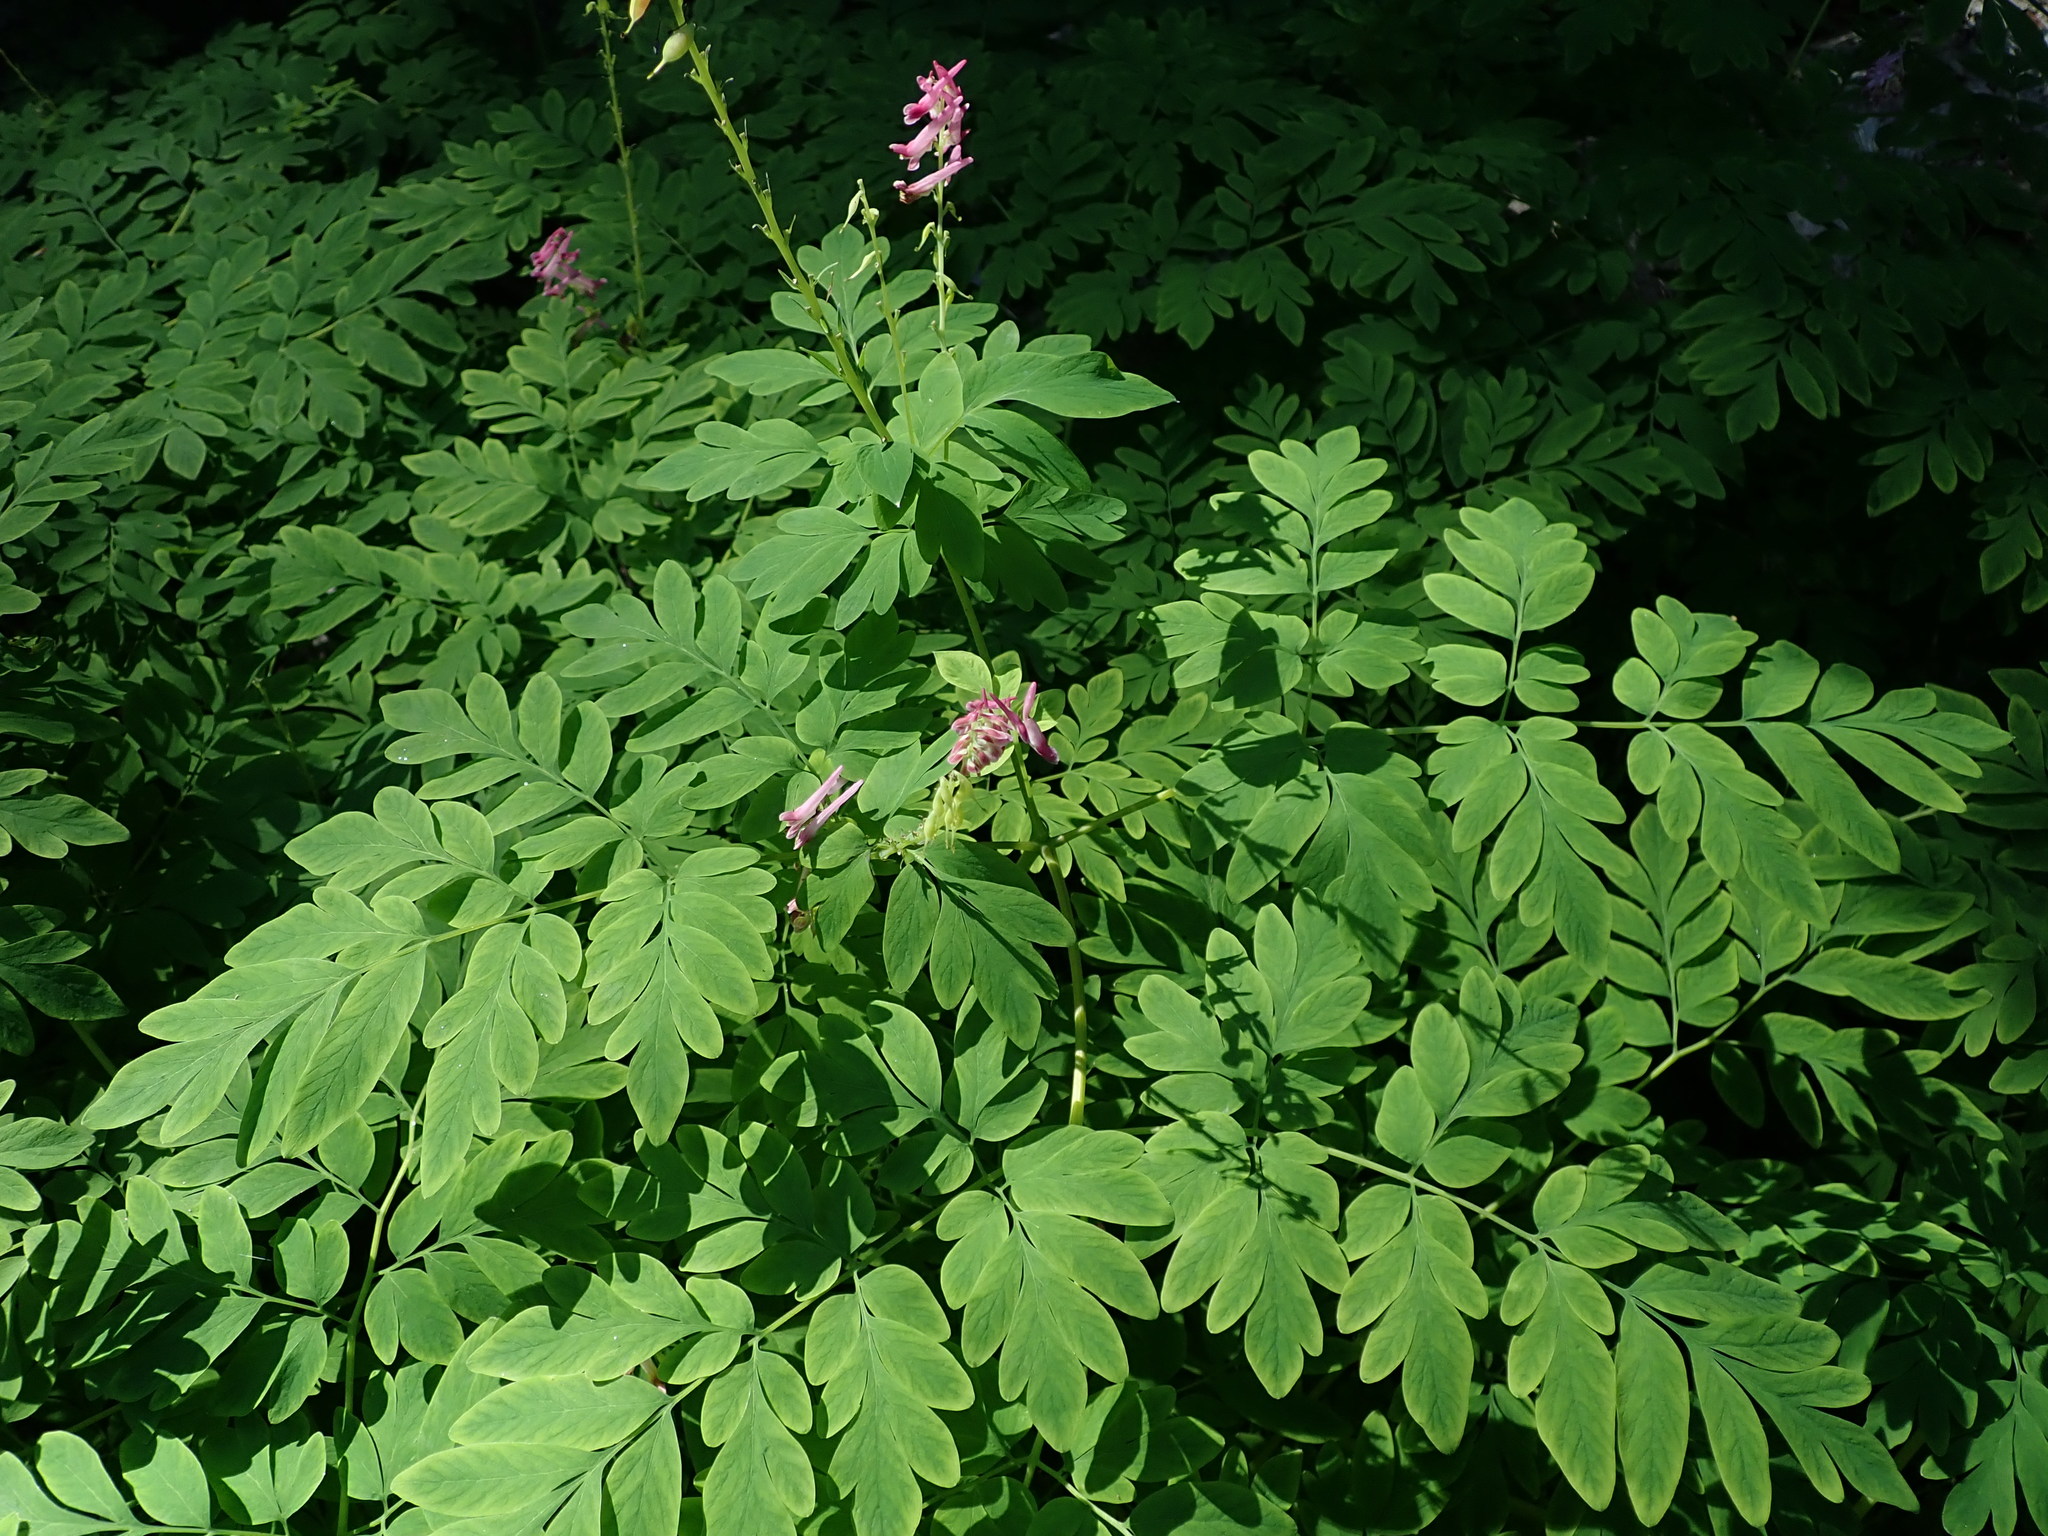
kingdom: Plantae
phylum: Tracheophyta
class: Magnoliopsida
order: Ranunculales
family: Papaveraceae
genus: Corydalis
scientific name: Corydalis scouleri
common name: Scouler's corydalis
